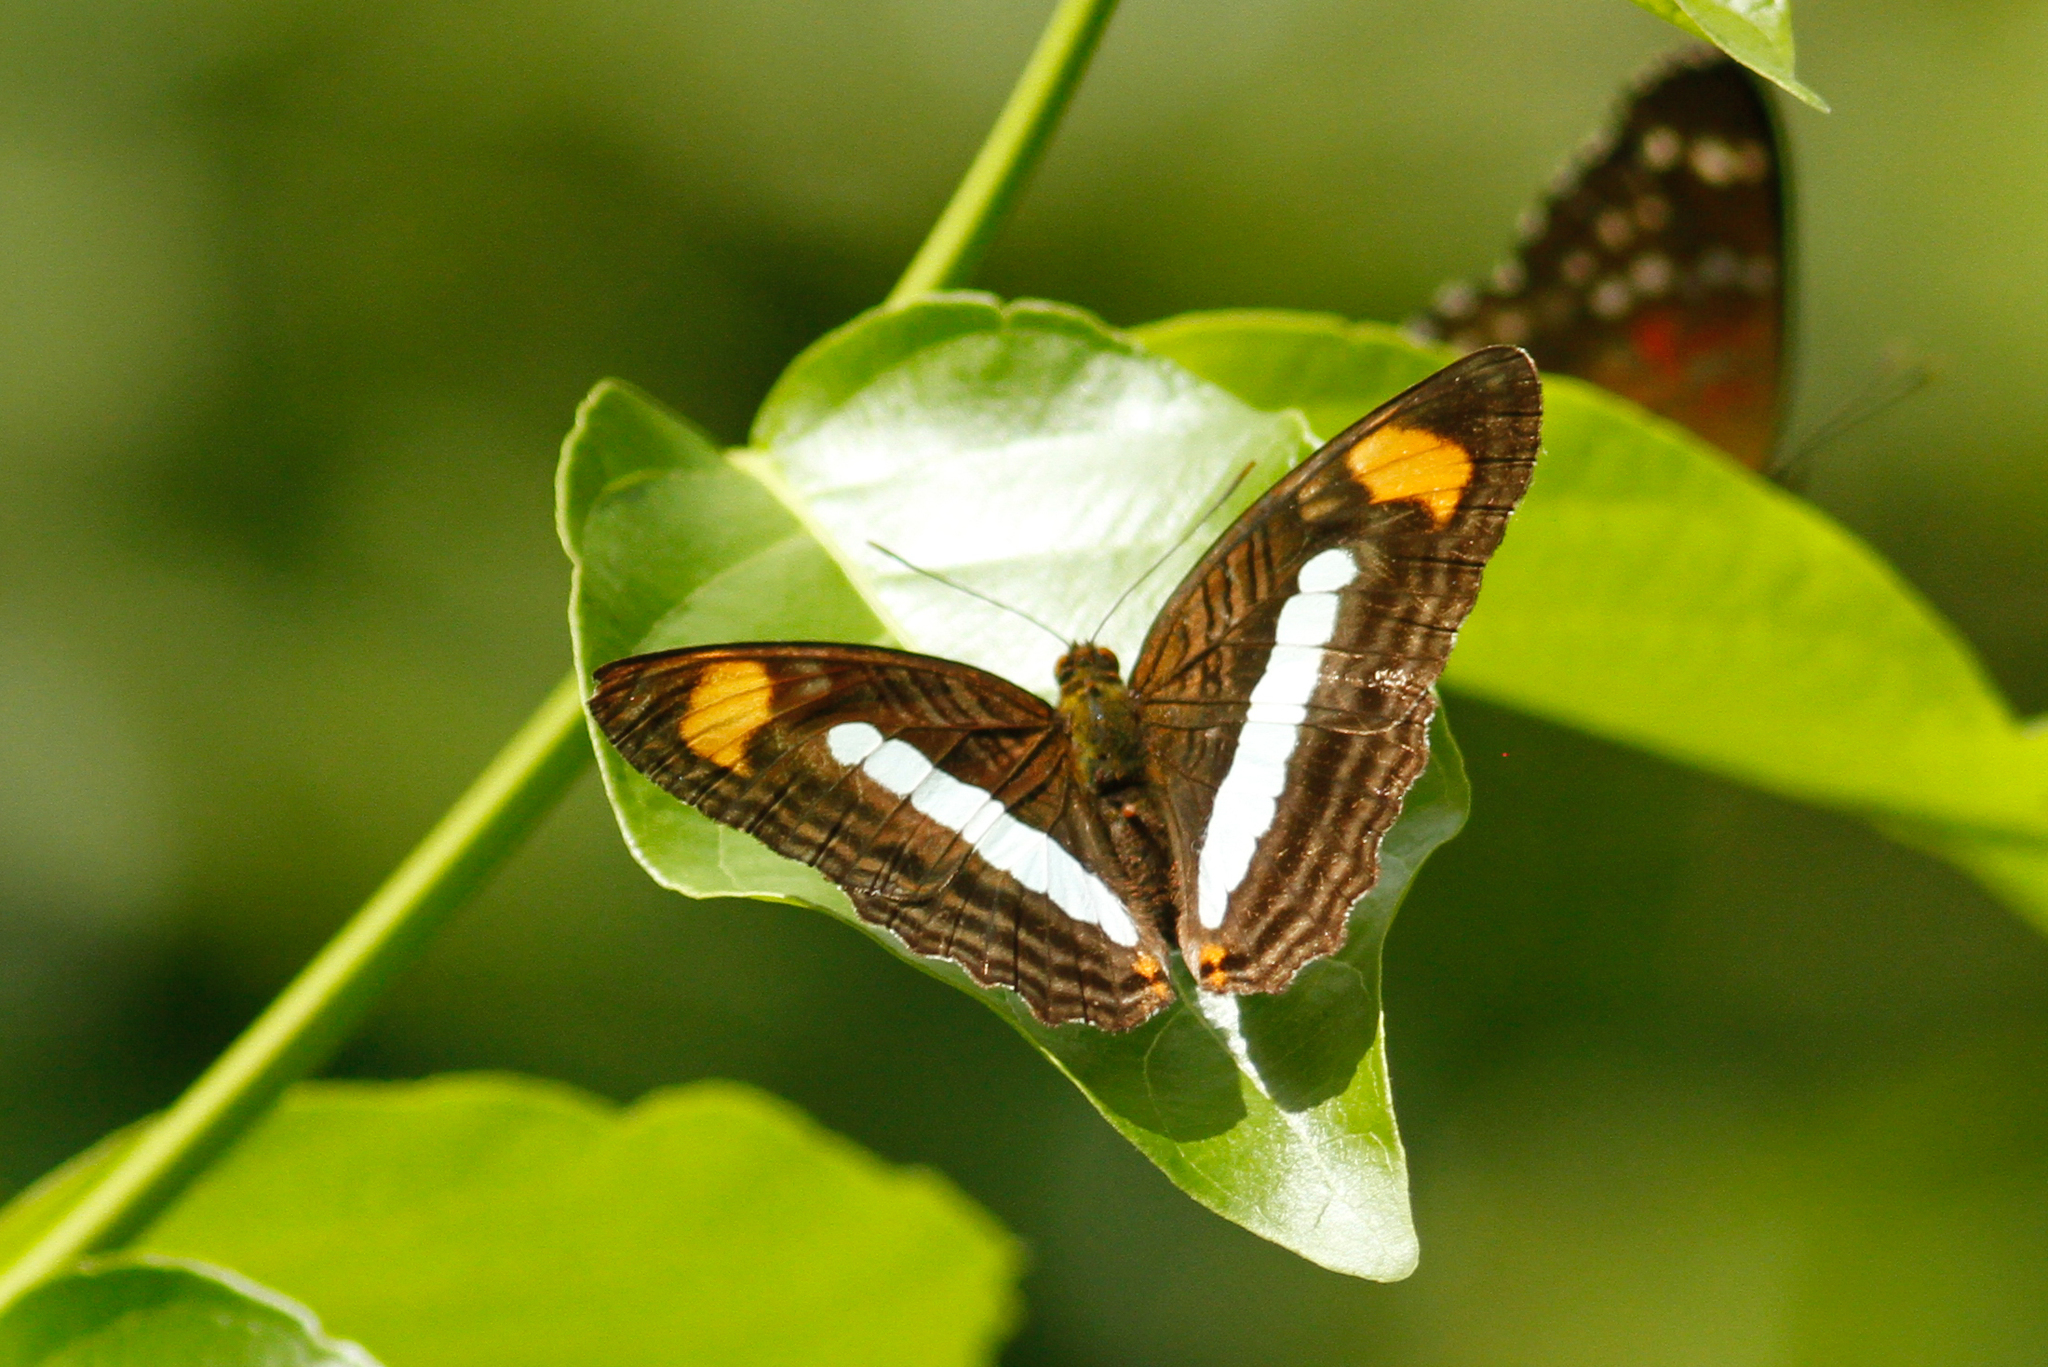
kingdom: Animalia
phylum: Arthropoda
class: Insecta
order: Lepidoptera
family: Nymphalidae
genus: Limenitis
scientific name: Limenitis Adelpha iphiclus
